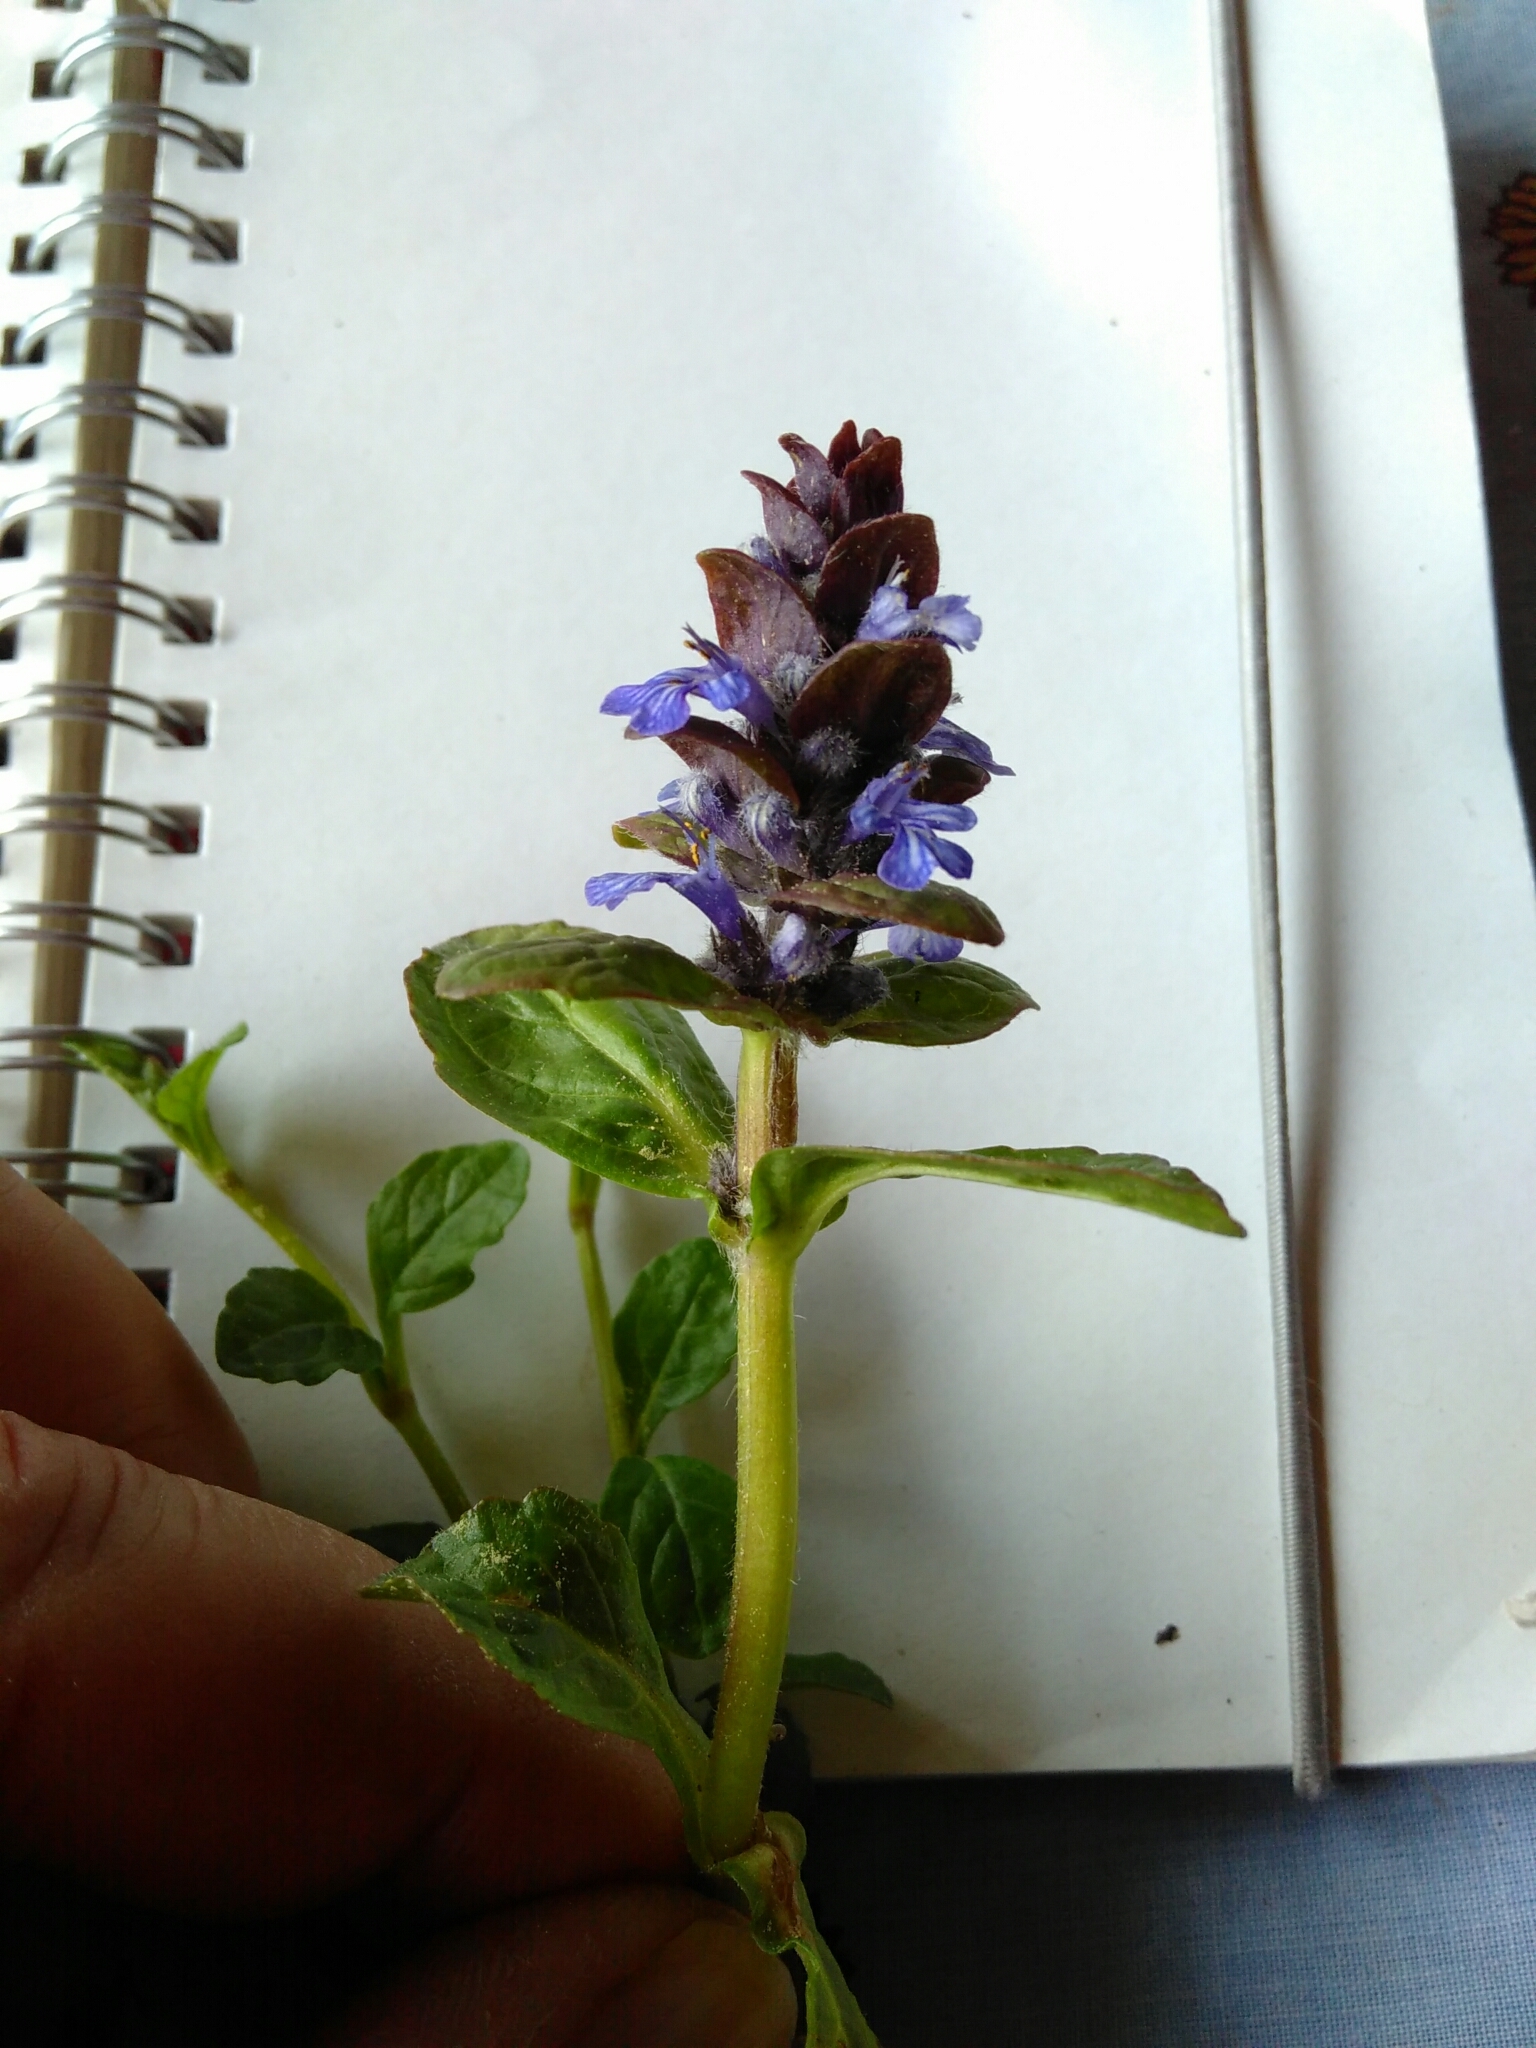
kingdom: Plantae
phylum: Tracheophyta
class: Magnoliopsida
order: Lamiales
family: Lamiaceae
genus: Ajuga
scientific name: Ajuga reptans
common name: Bugle
